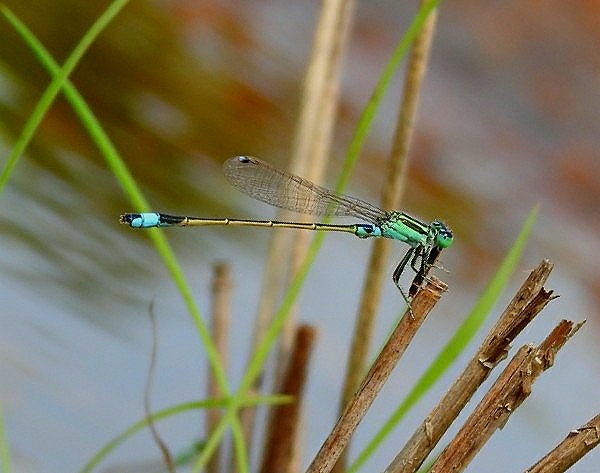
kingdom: Animalia
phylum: Arthropoda
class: Insecta
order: Odonata
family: Coenagrionidae
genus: Ischnura
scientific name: Ischnura senegalensis
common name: Tropical bluetail
